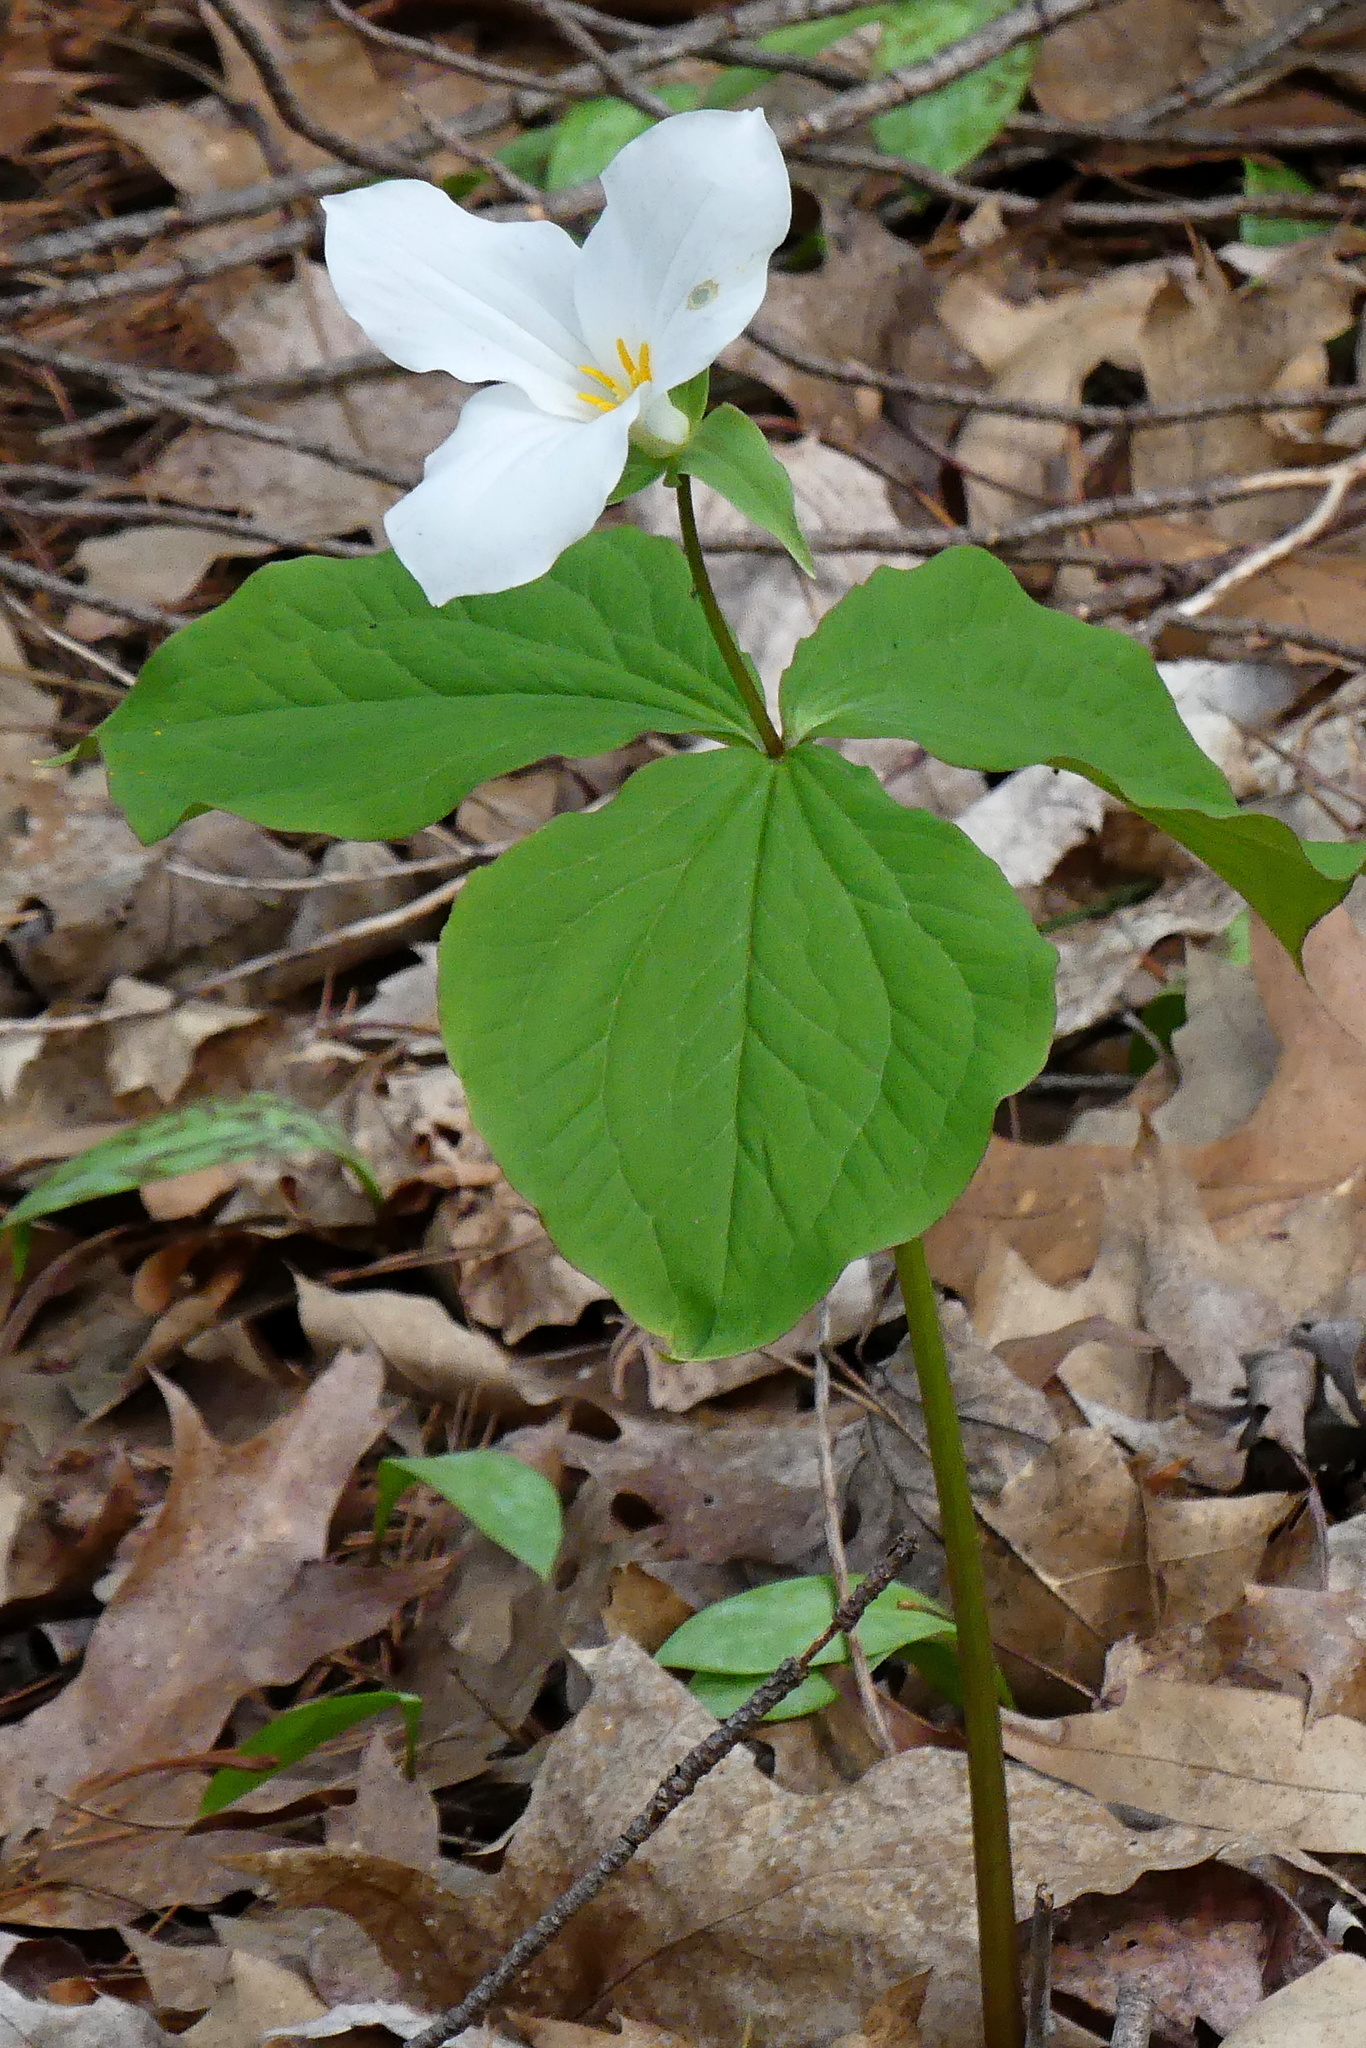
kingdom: Plantae
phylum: Tracheophyta
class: Liliopsida
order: Liliales
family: Melanthiaceae
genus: Trillium
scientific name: Trillium grandiflorum
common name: Great white trillium
